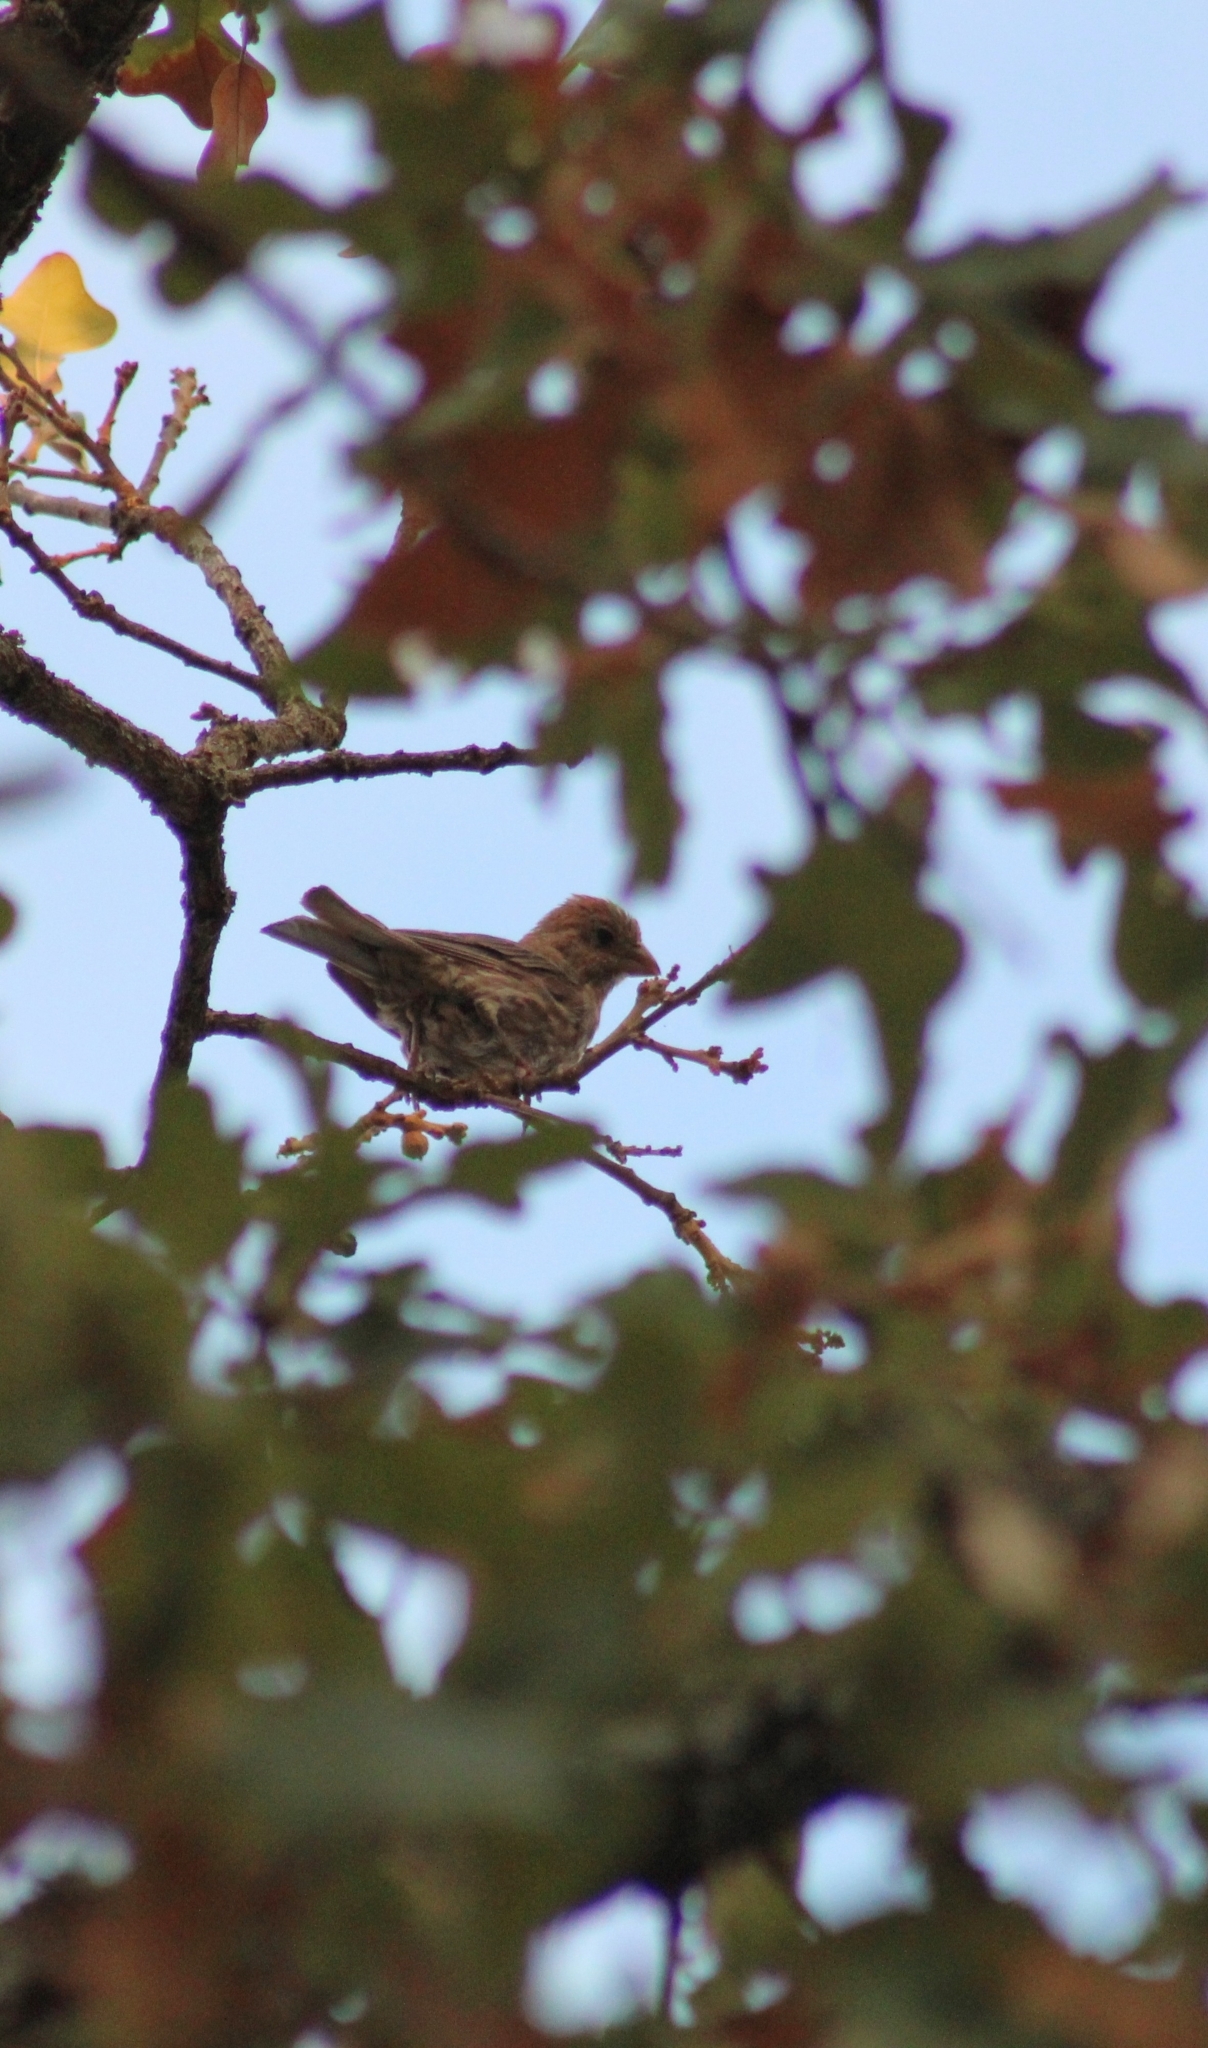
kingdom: Animalia
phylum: Chordata
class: Aves
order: Passeriformes
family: Fringillidae
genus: Haemorhous
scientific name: Haemorhous mexicanus
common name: House finch
